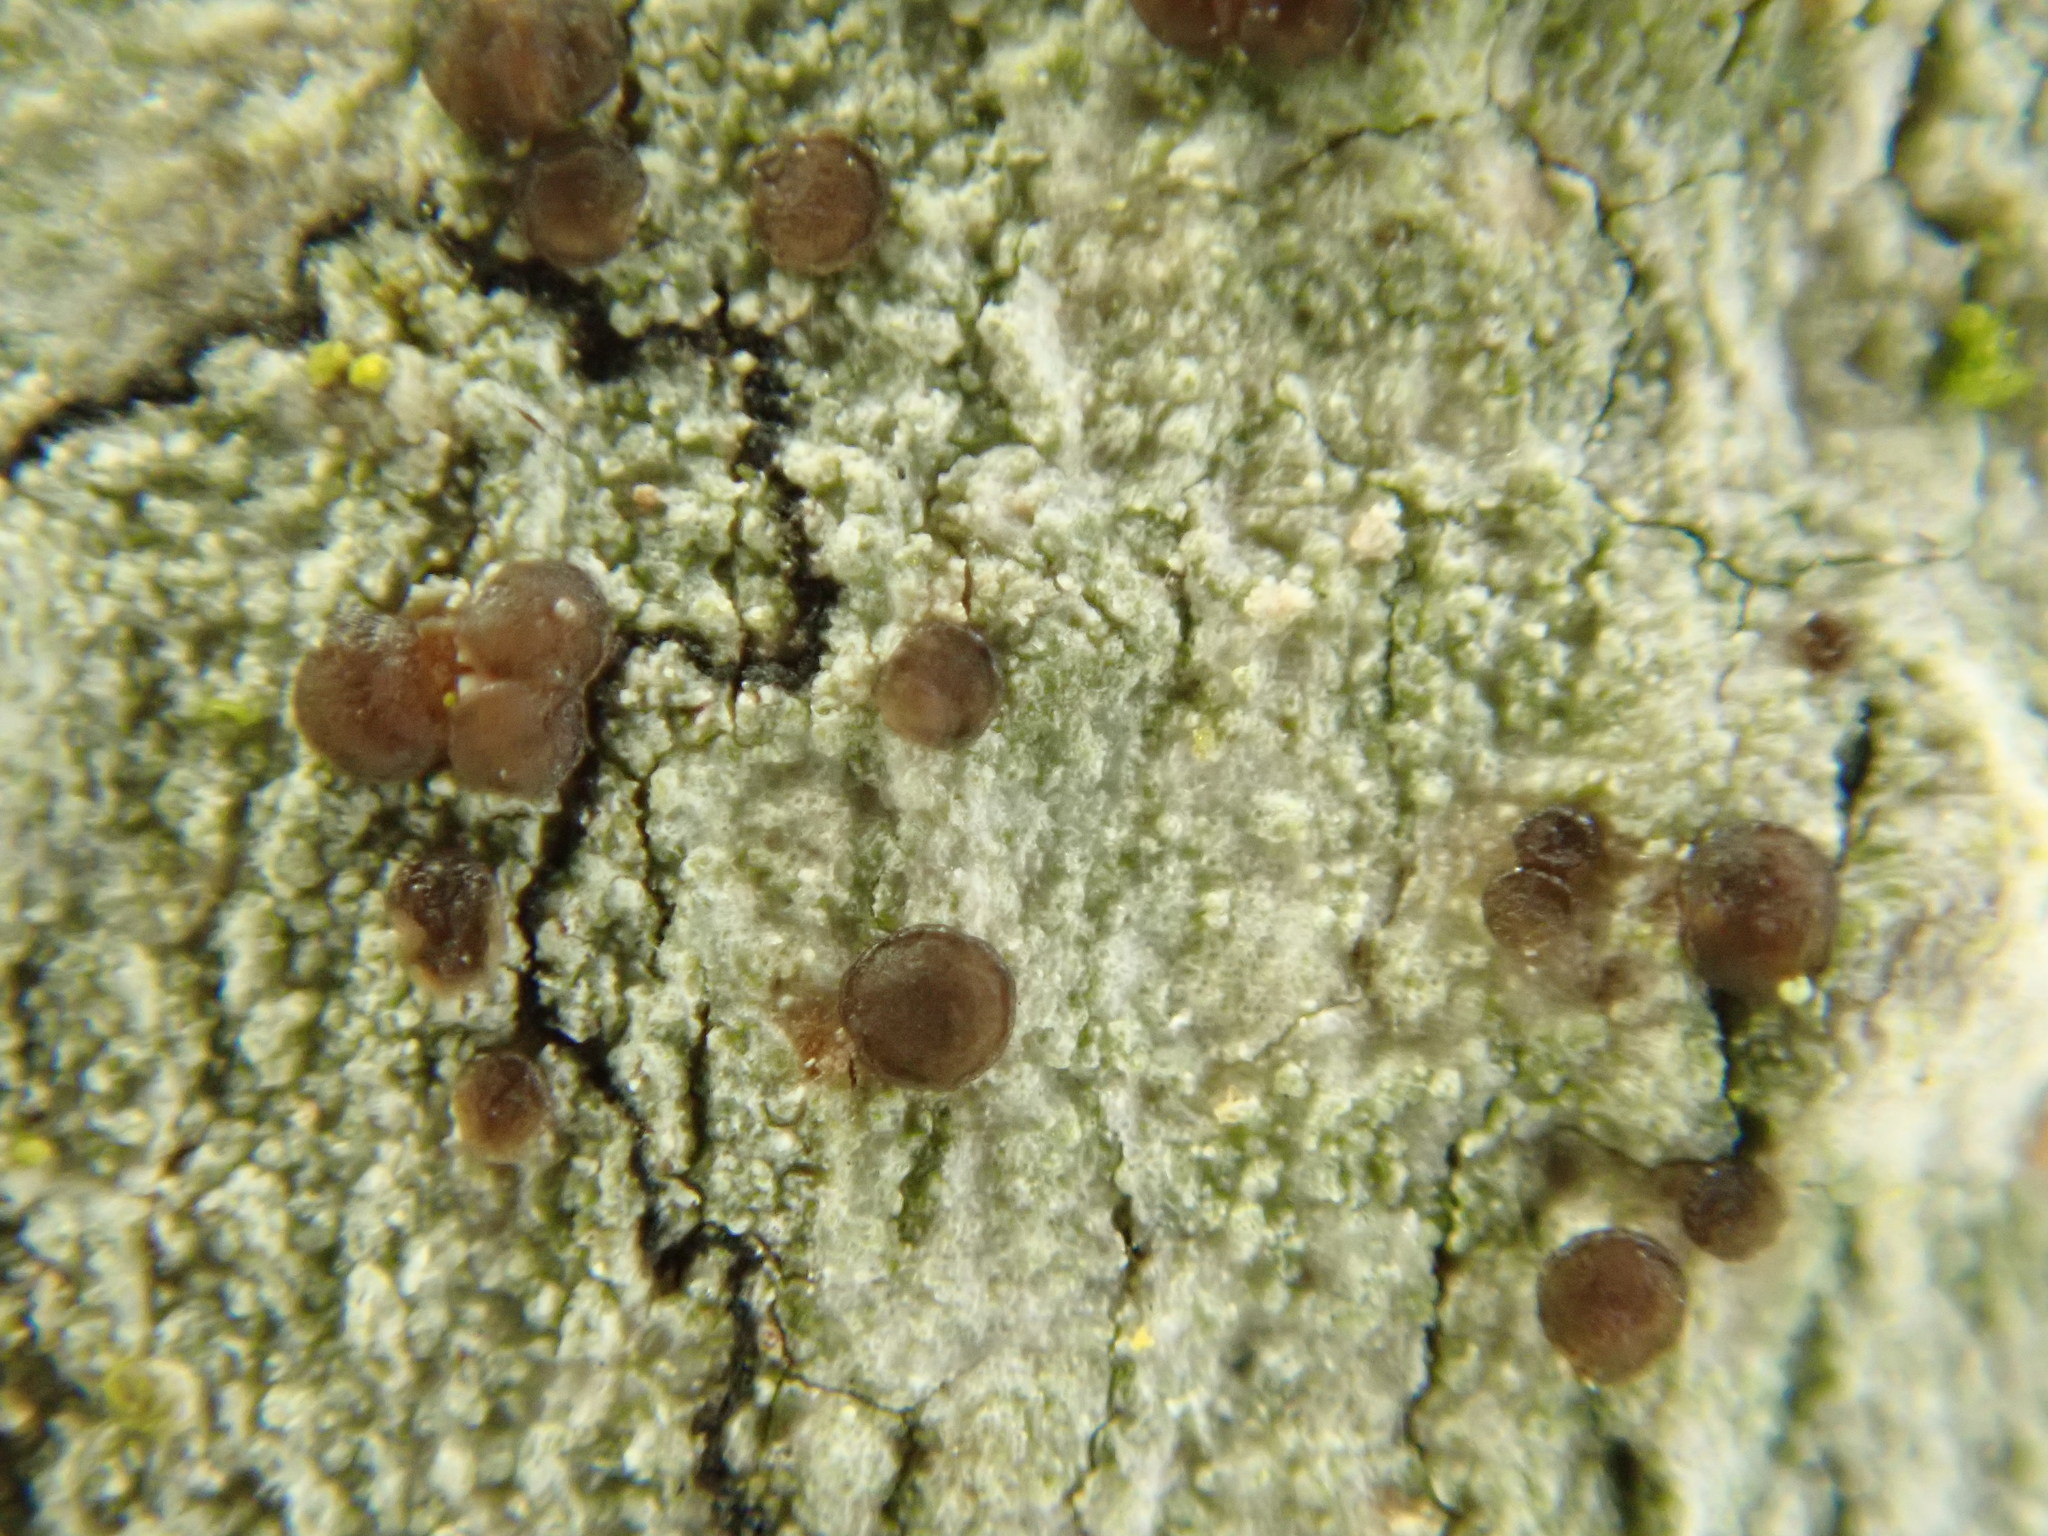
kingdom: Fungi
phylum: Ascomycota
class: Lecanoromycetes
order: Lecanorales
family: Lecanoraceae
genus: Traponora
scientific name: Traponora varians
